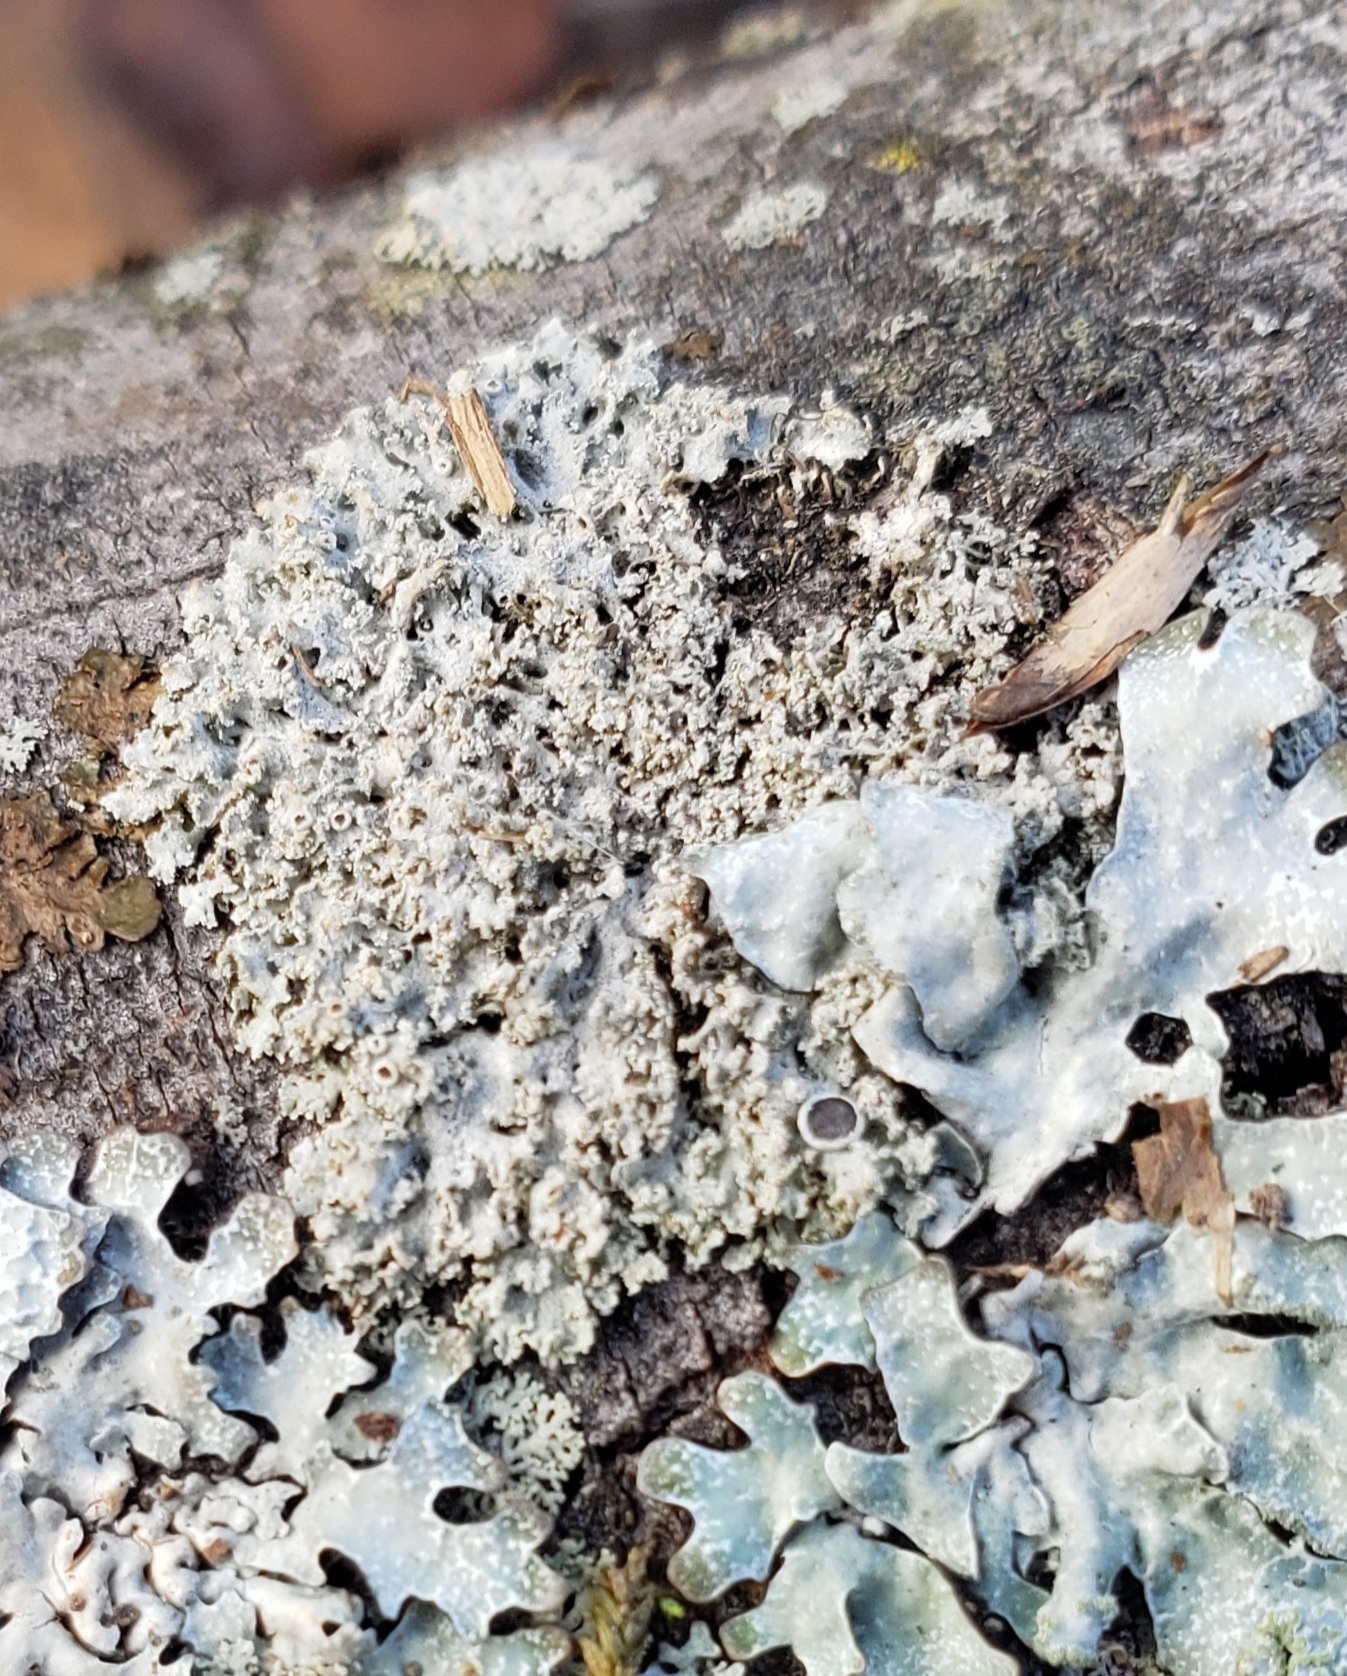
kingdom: Fungi
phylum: Ascomycota
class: Lecanoromycetes
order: Caliciales
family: Physciaceae
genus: Physcia
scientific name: Physcia millegrana
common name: Rosette lichen
